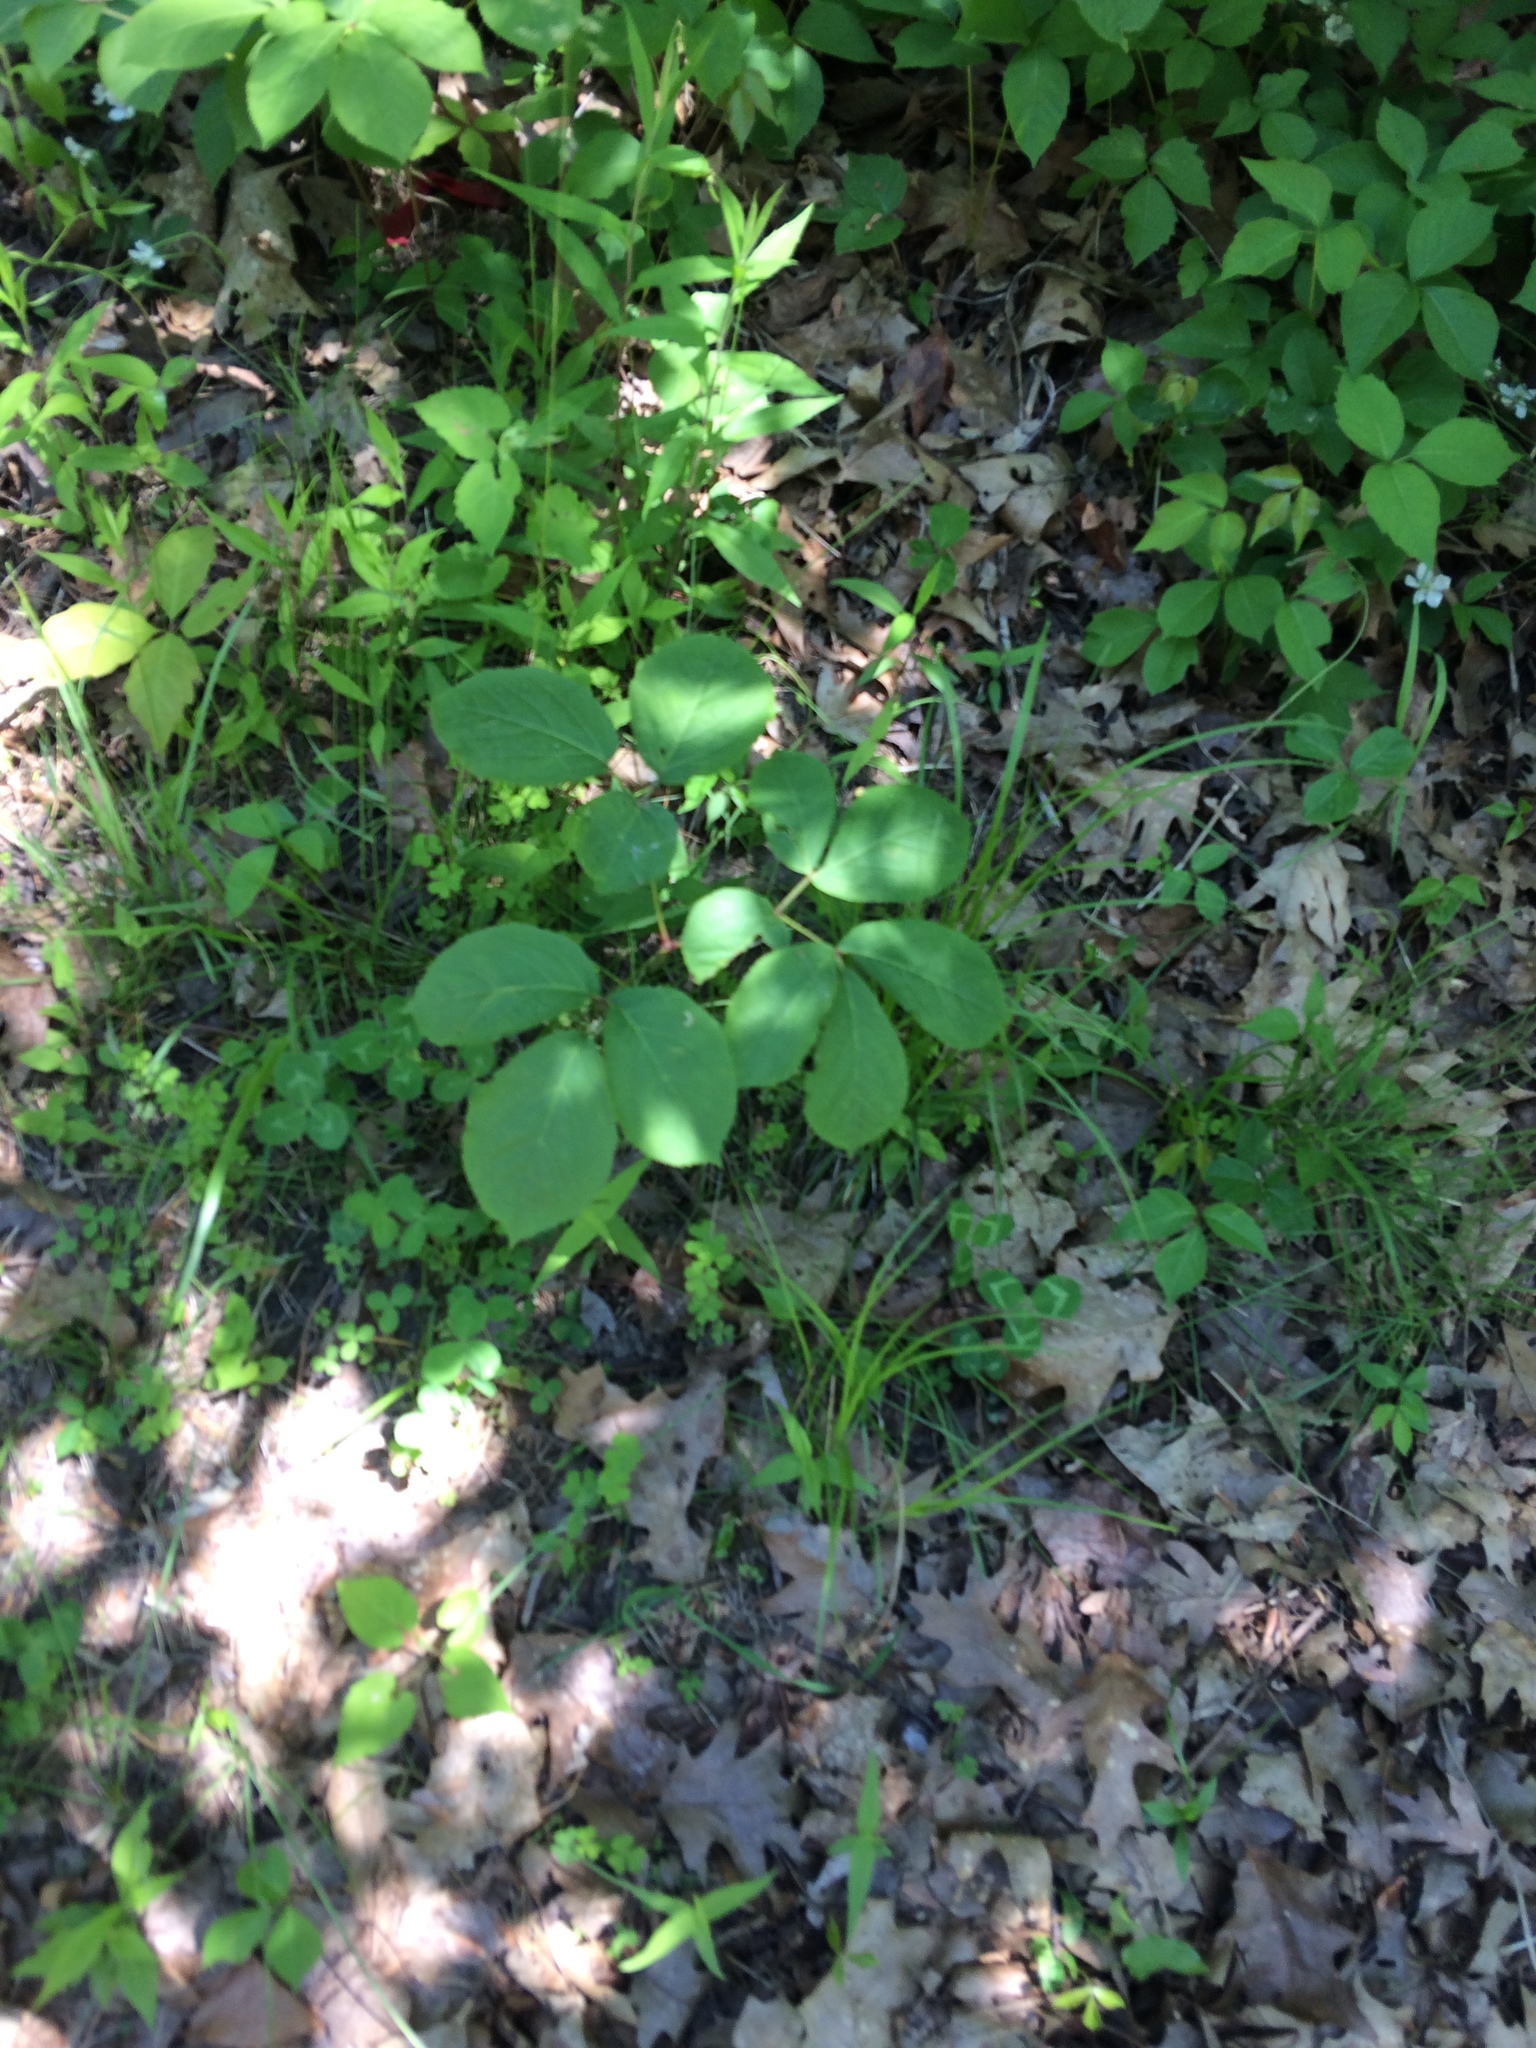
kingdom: Plantae
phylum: Tracheophyta
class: Magnoliopsida
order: Apiales
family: Araliaceae
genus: Aralia
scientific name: Aralia nudicaulis
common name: Wild sarsaparilla
